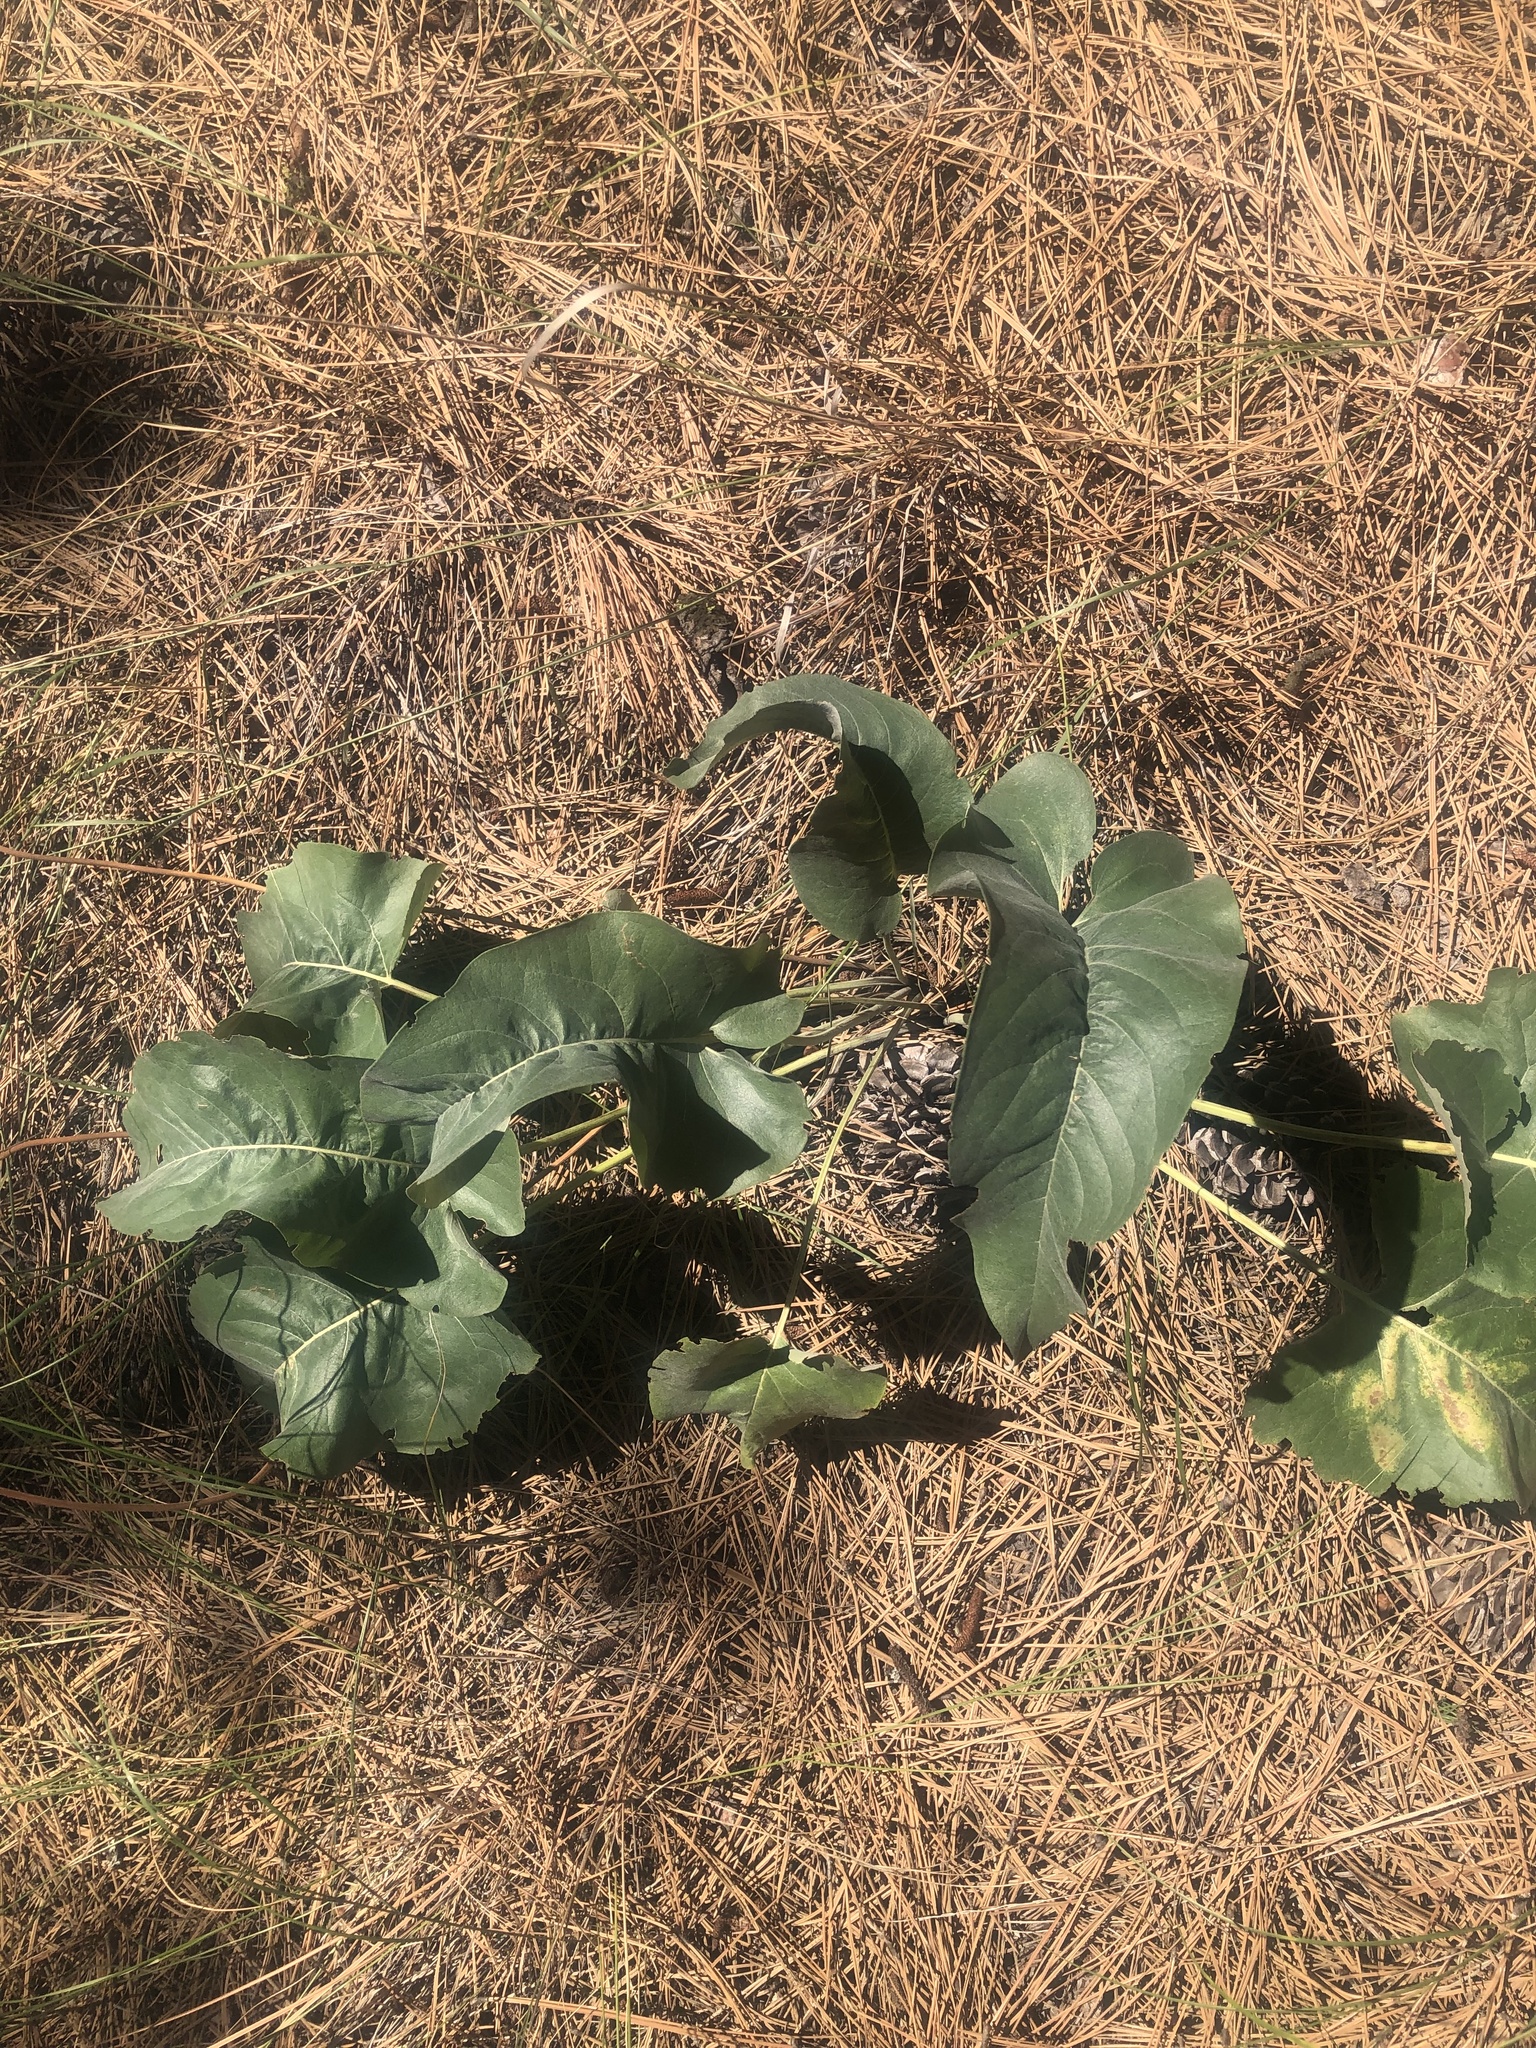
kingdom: Plantae
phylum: Tracheophyta
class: Magnoliopsida
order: Asterales
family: Asteraceae
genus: Wyethia
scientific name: Wyethia sagittata
